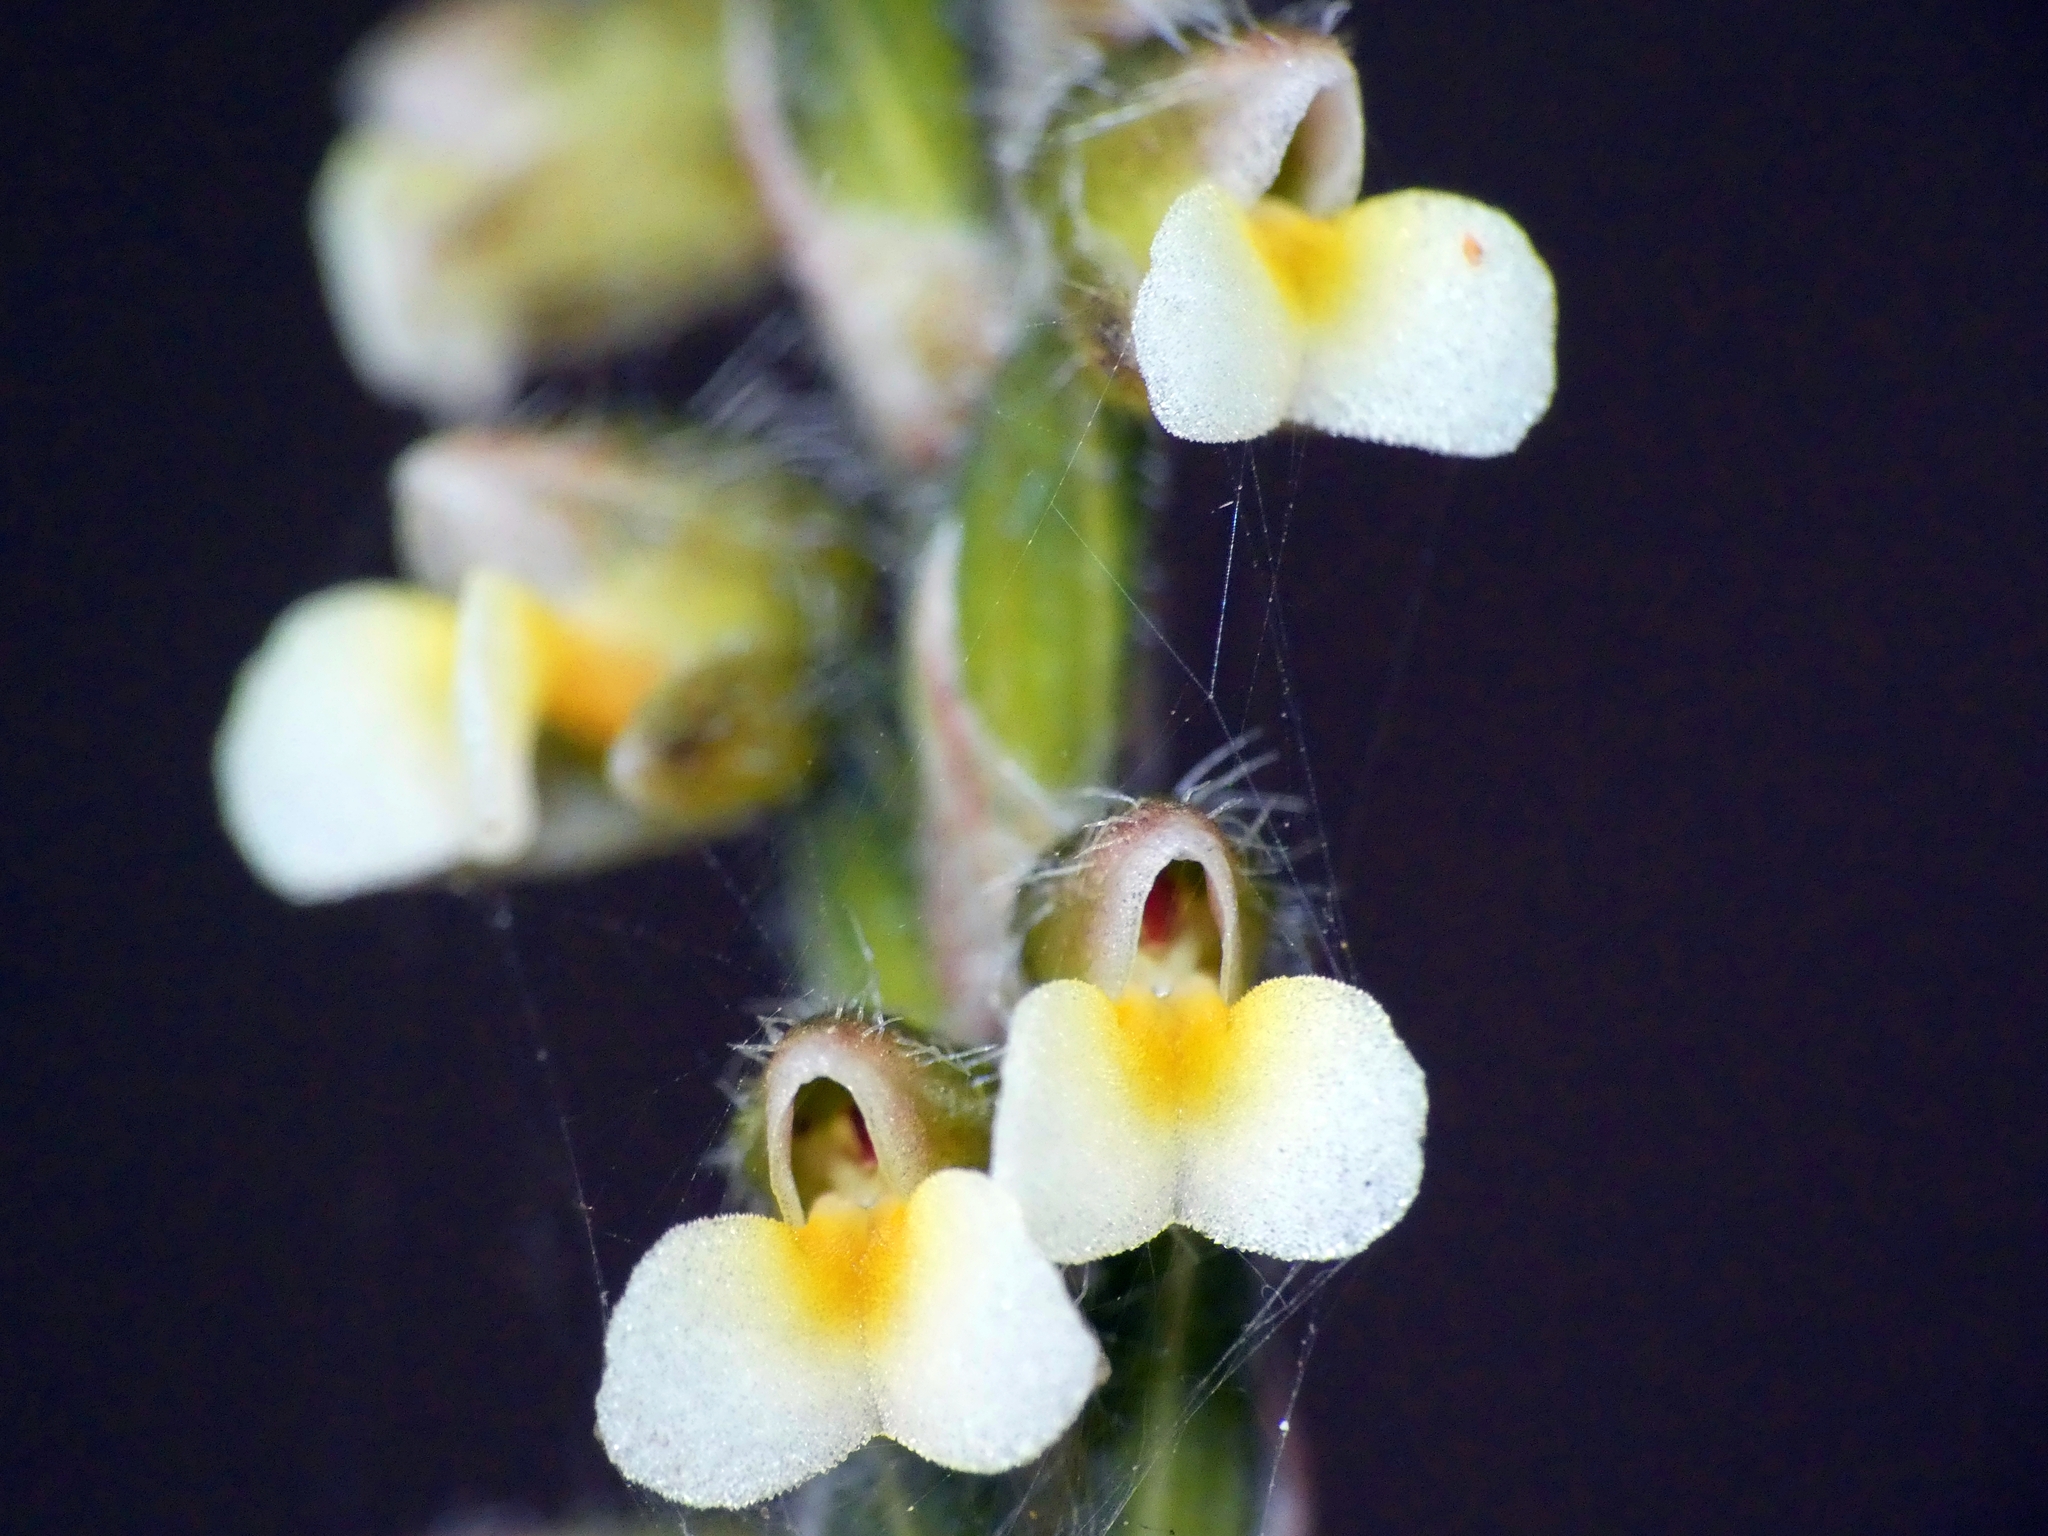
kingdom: Plantae
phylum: Tracheophyta
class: Liliopsida
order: Asparagales
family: Orchidaceae
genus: Zeuxine
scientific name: Zeuxine oblonga
